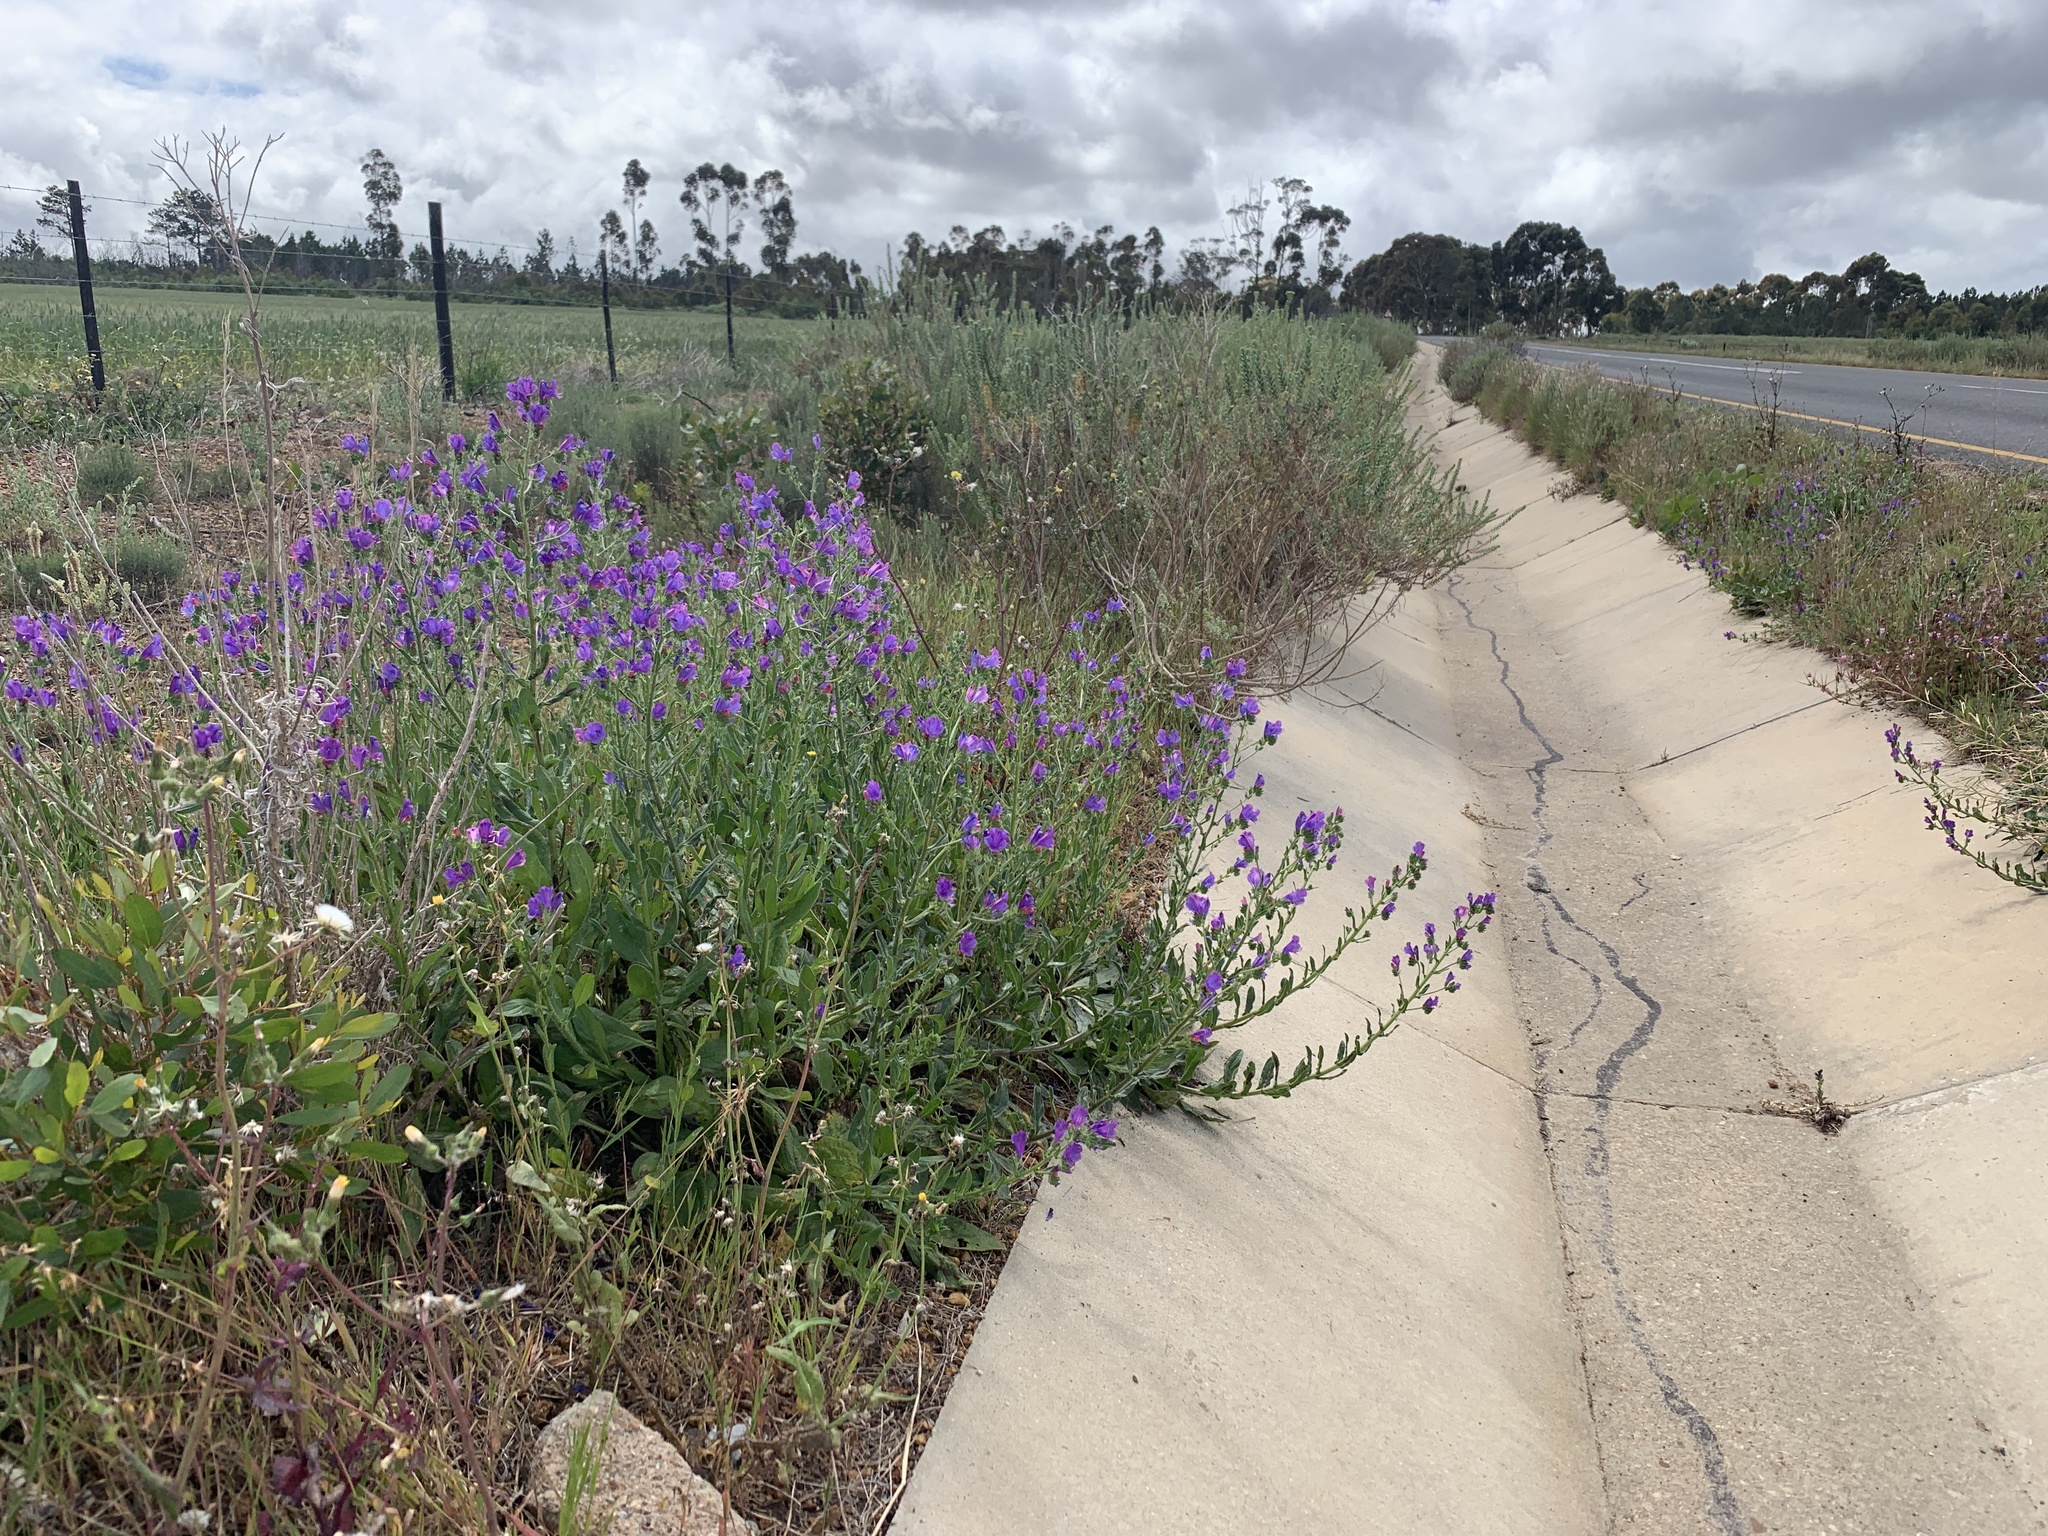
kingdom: Plantae
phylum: Tracheophyta
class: Magnoliopsida
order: Boraginales
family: Boraginaceae
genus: Echium
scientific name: Echium plantagineum
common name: Purple viper's-bugloss
